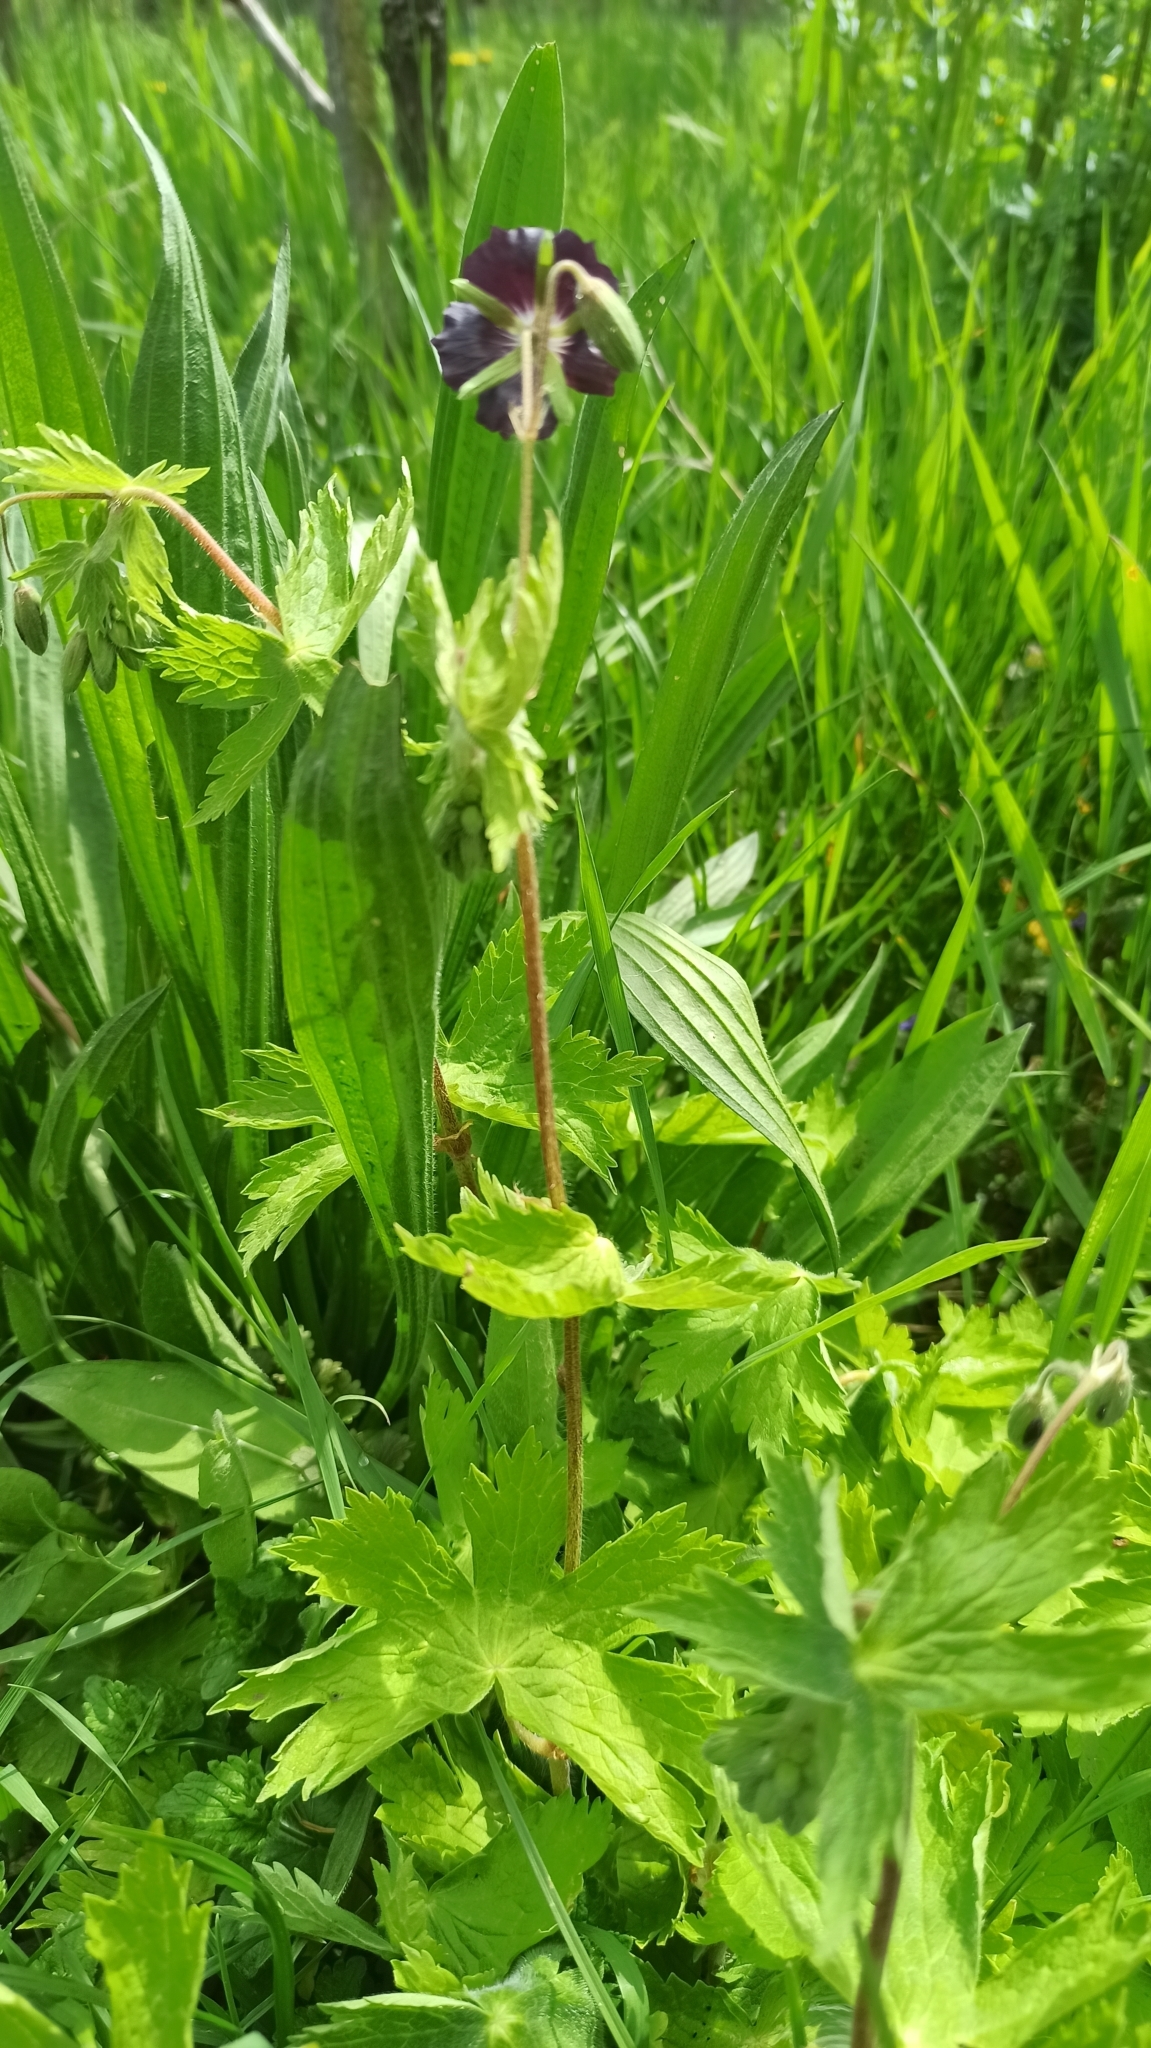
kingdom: Plantae
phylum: Tracheophyta
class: Magnoliopsida
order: Geraniales
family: Geraniaceae
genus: Geranium
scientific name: Geranium phaeum
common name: Dusky crane's-bill
